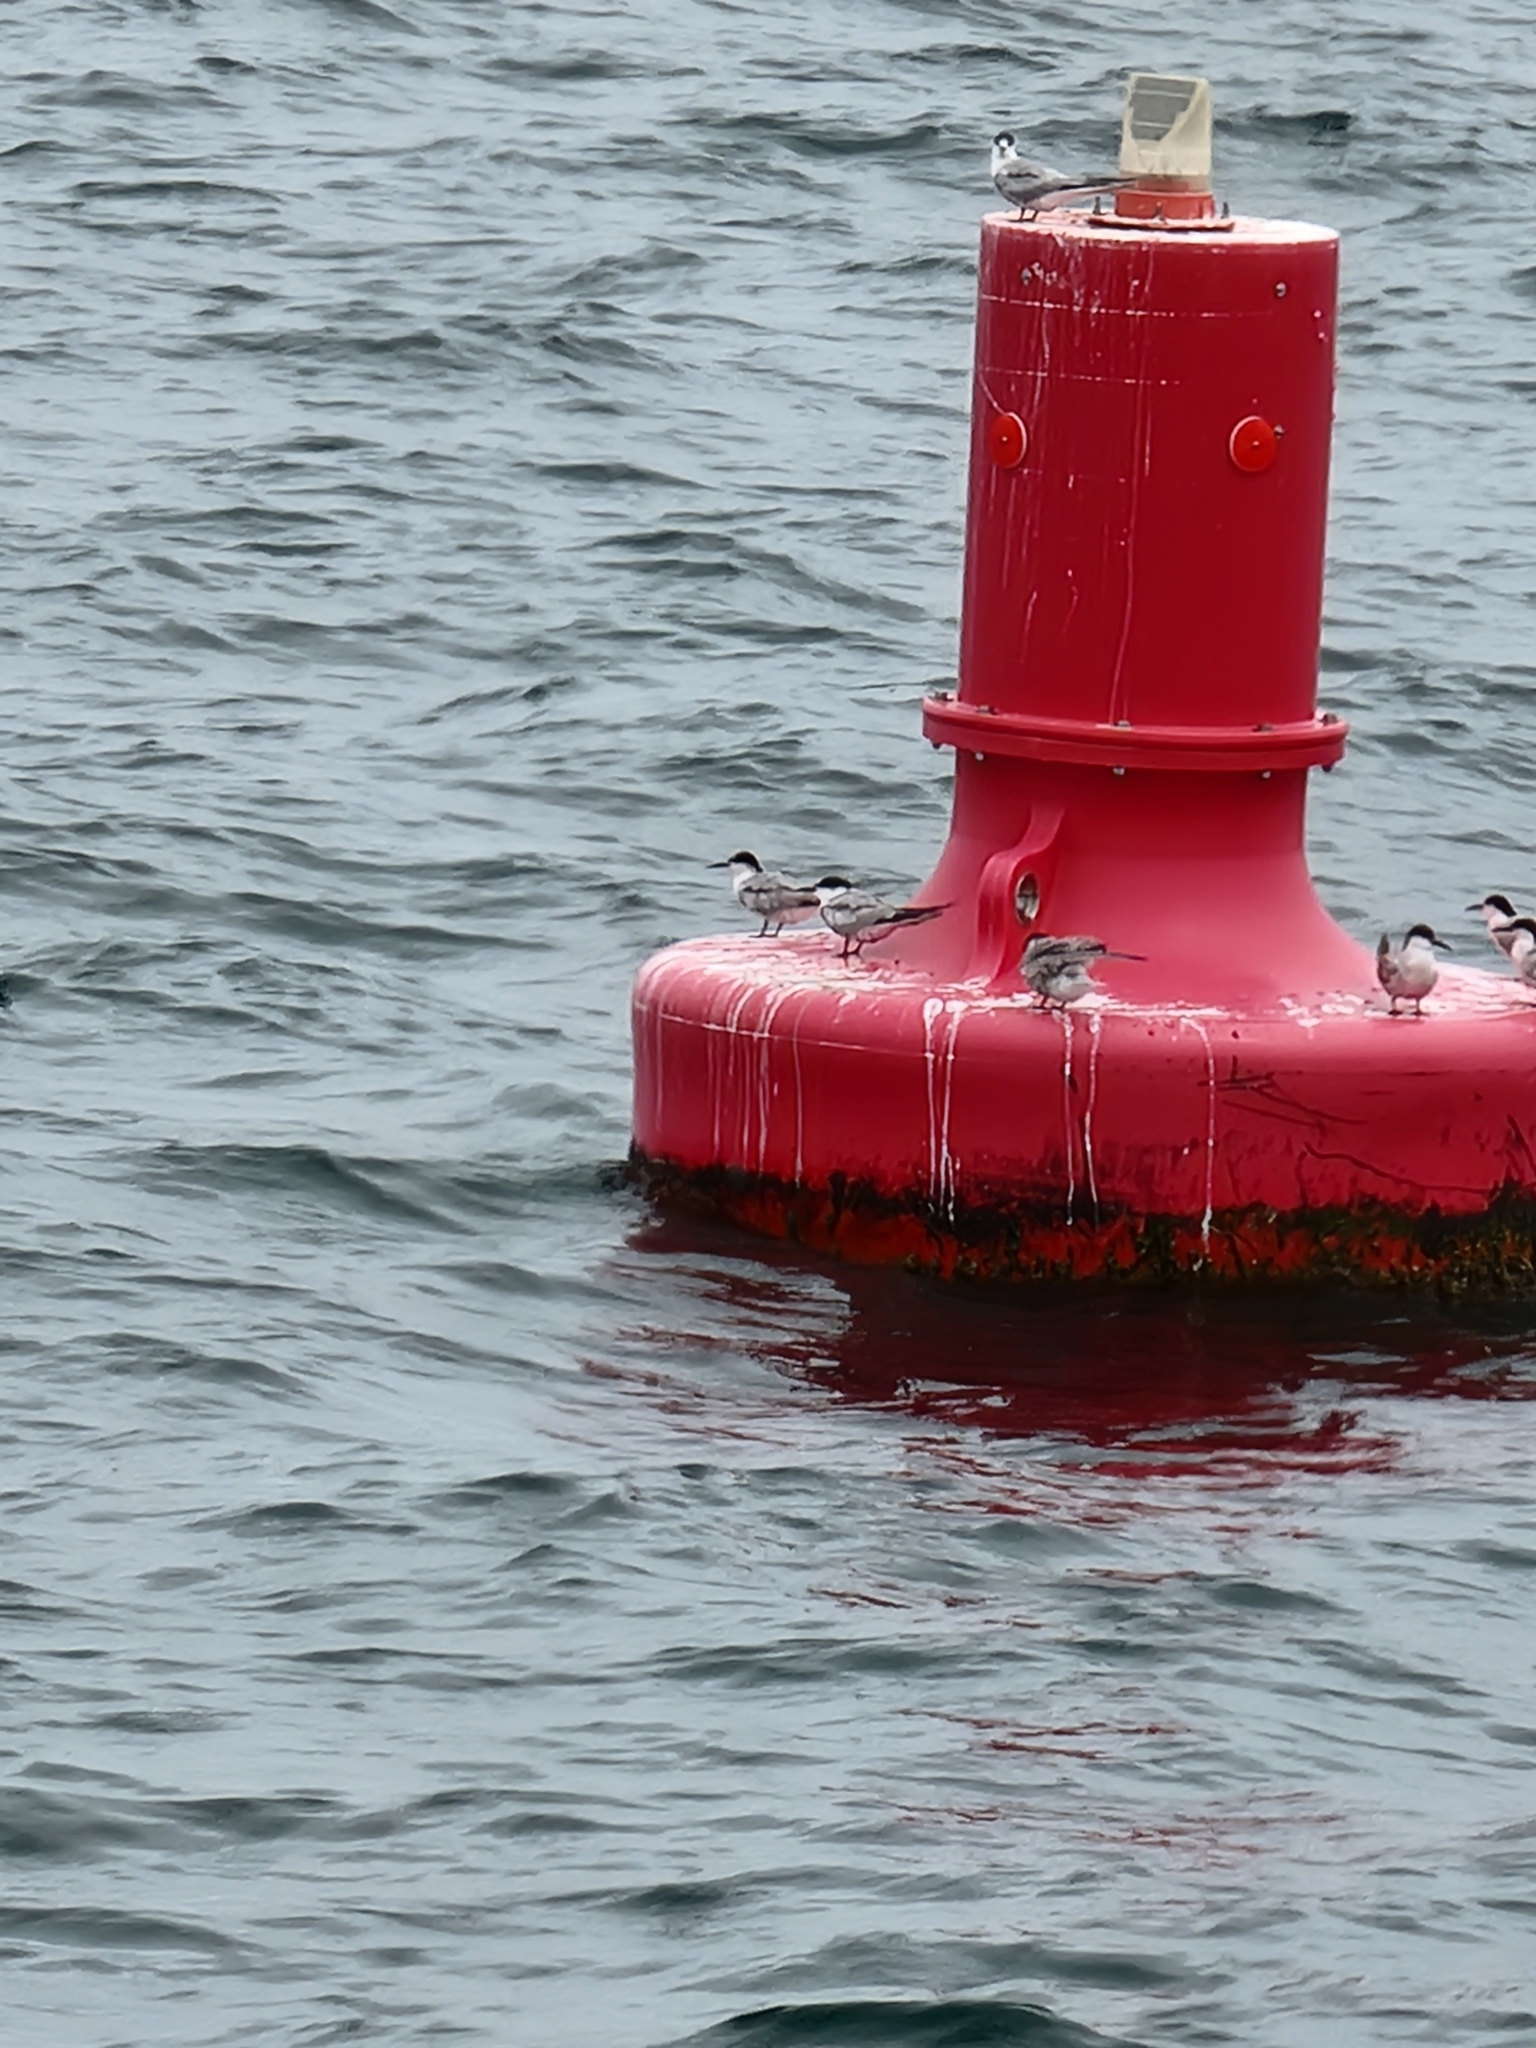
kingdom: Animalia
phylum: Chordata
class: Aves
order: Charadriiformes
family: Laridae
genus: Sterna
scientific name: Sterna hirundo
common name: Common tern
